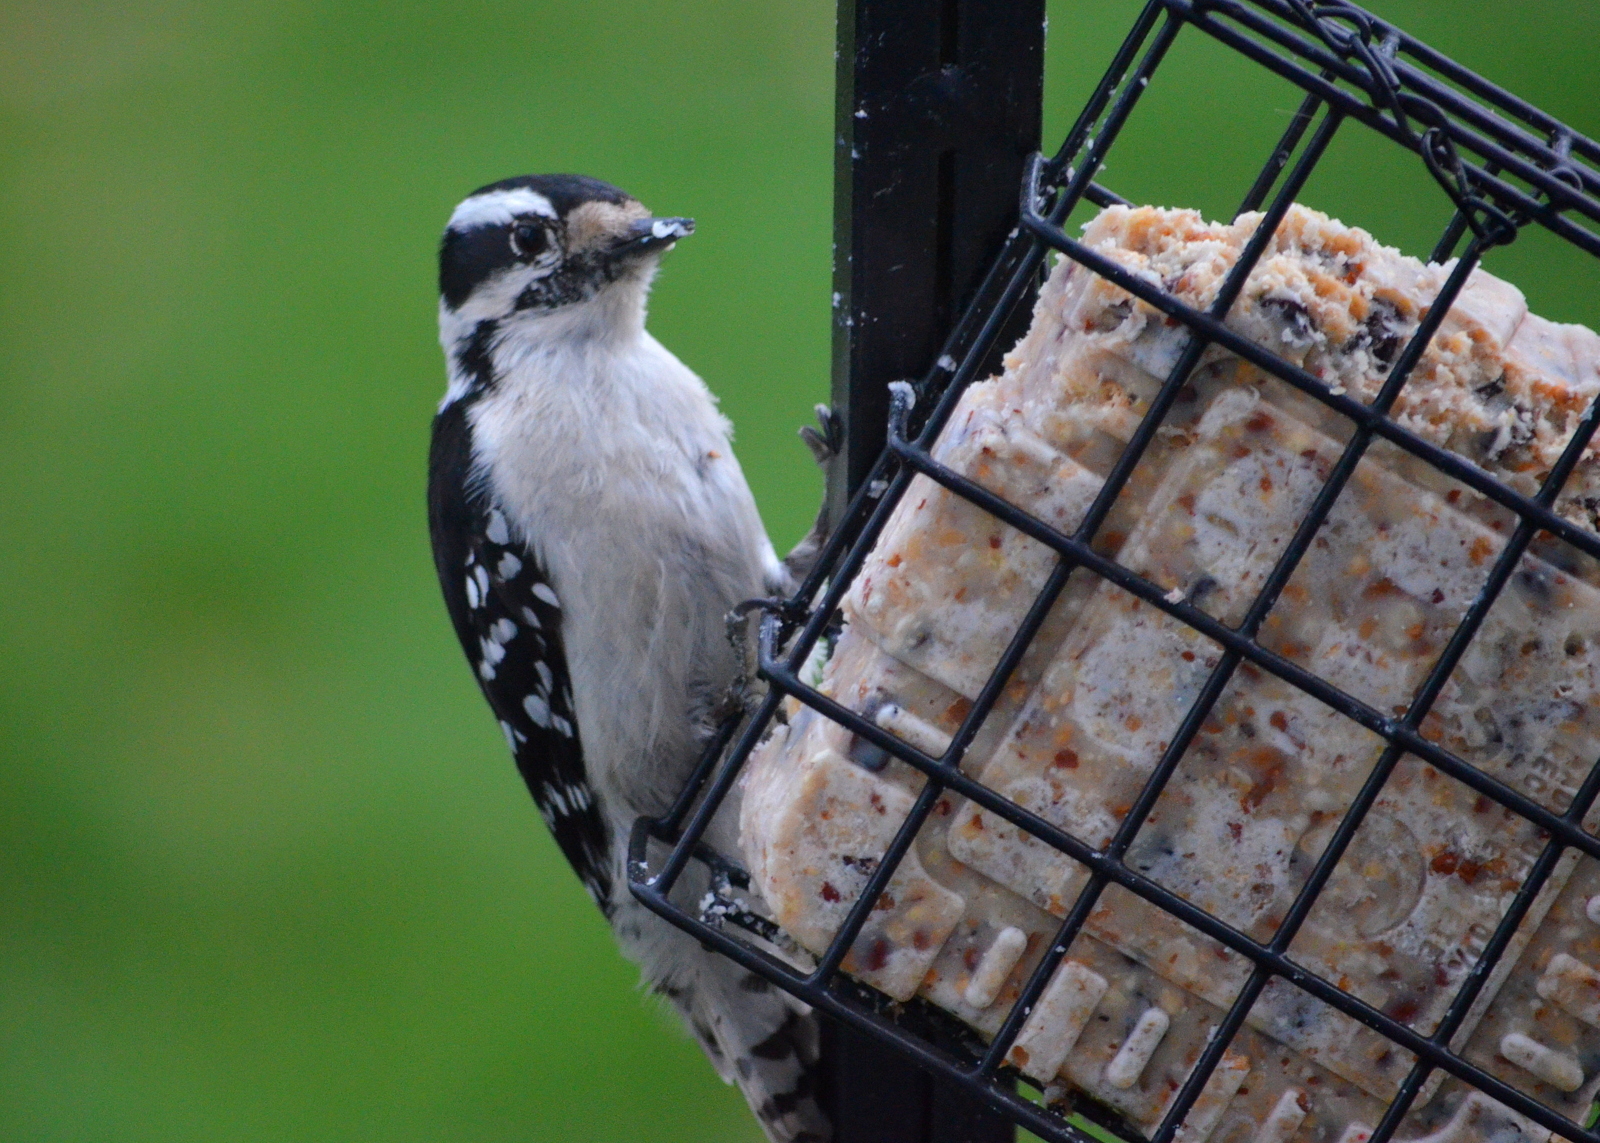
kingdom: Animalia
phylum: Chordata
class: Aves
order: Piciformes
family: Picidae
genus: Dryobates
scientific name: Dryobates pubescens
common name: Downy woodpecker
